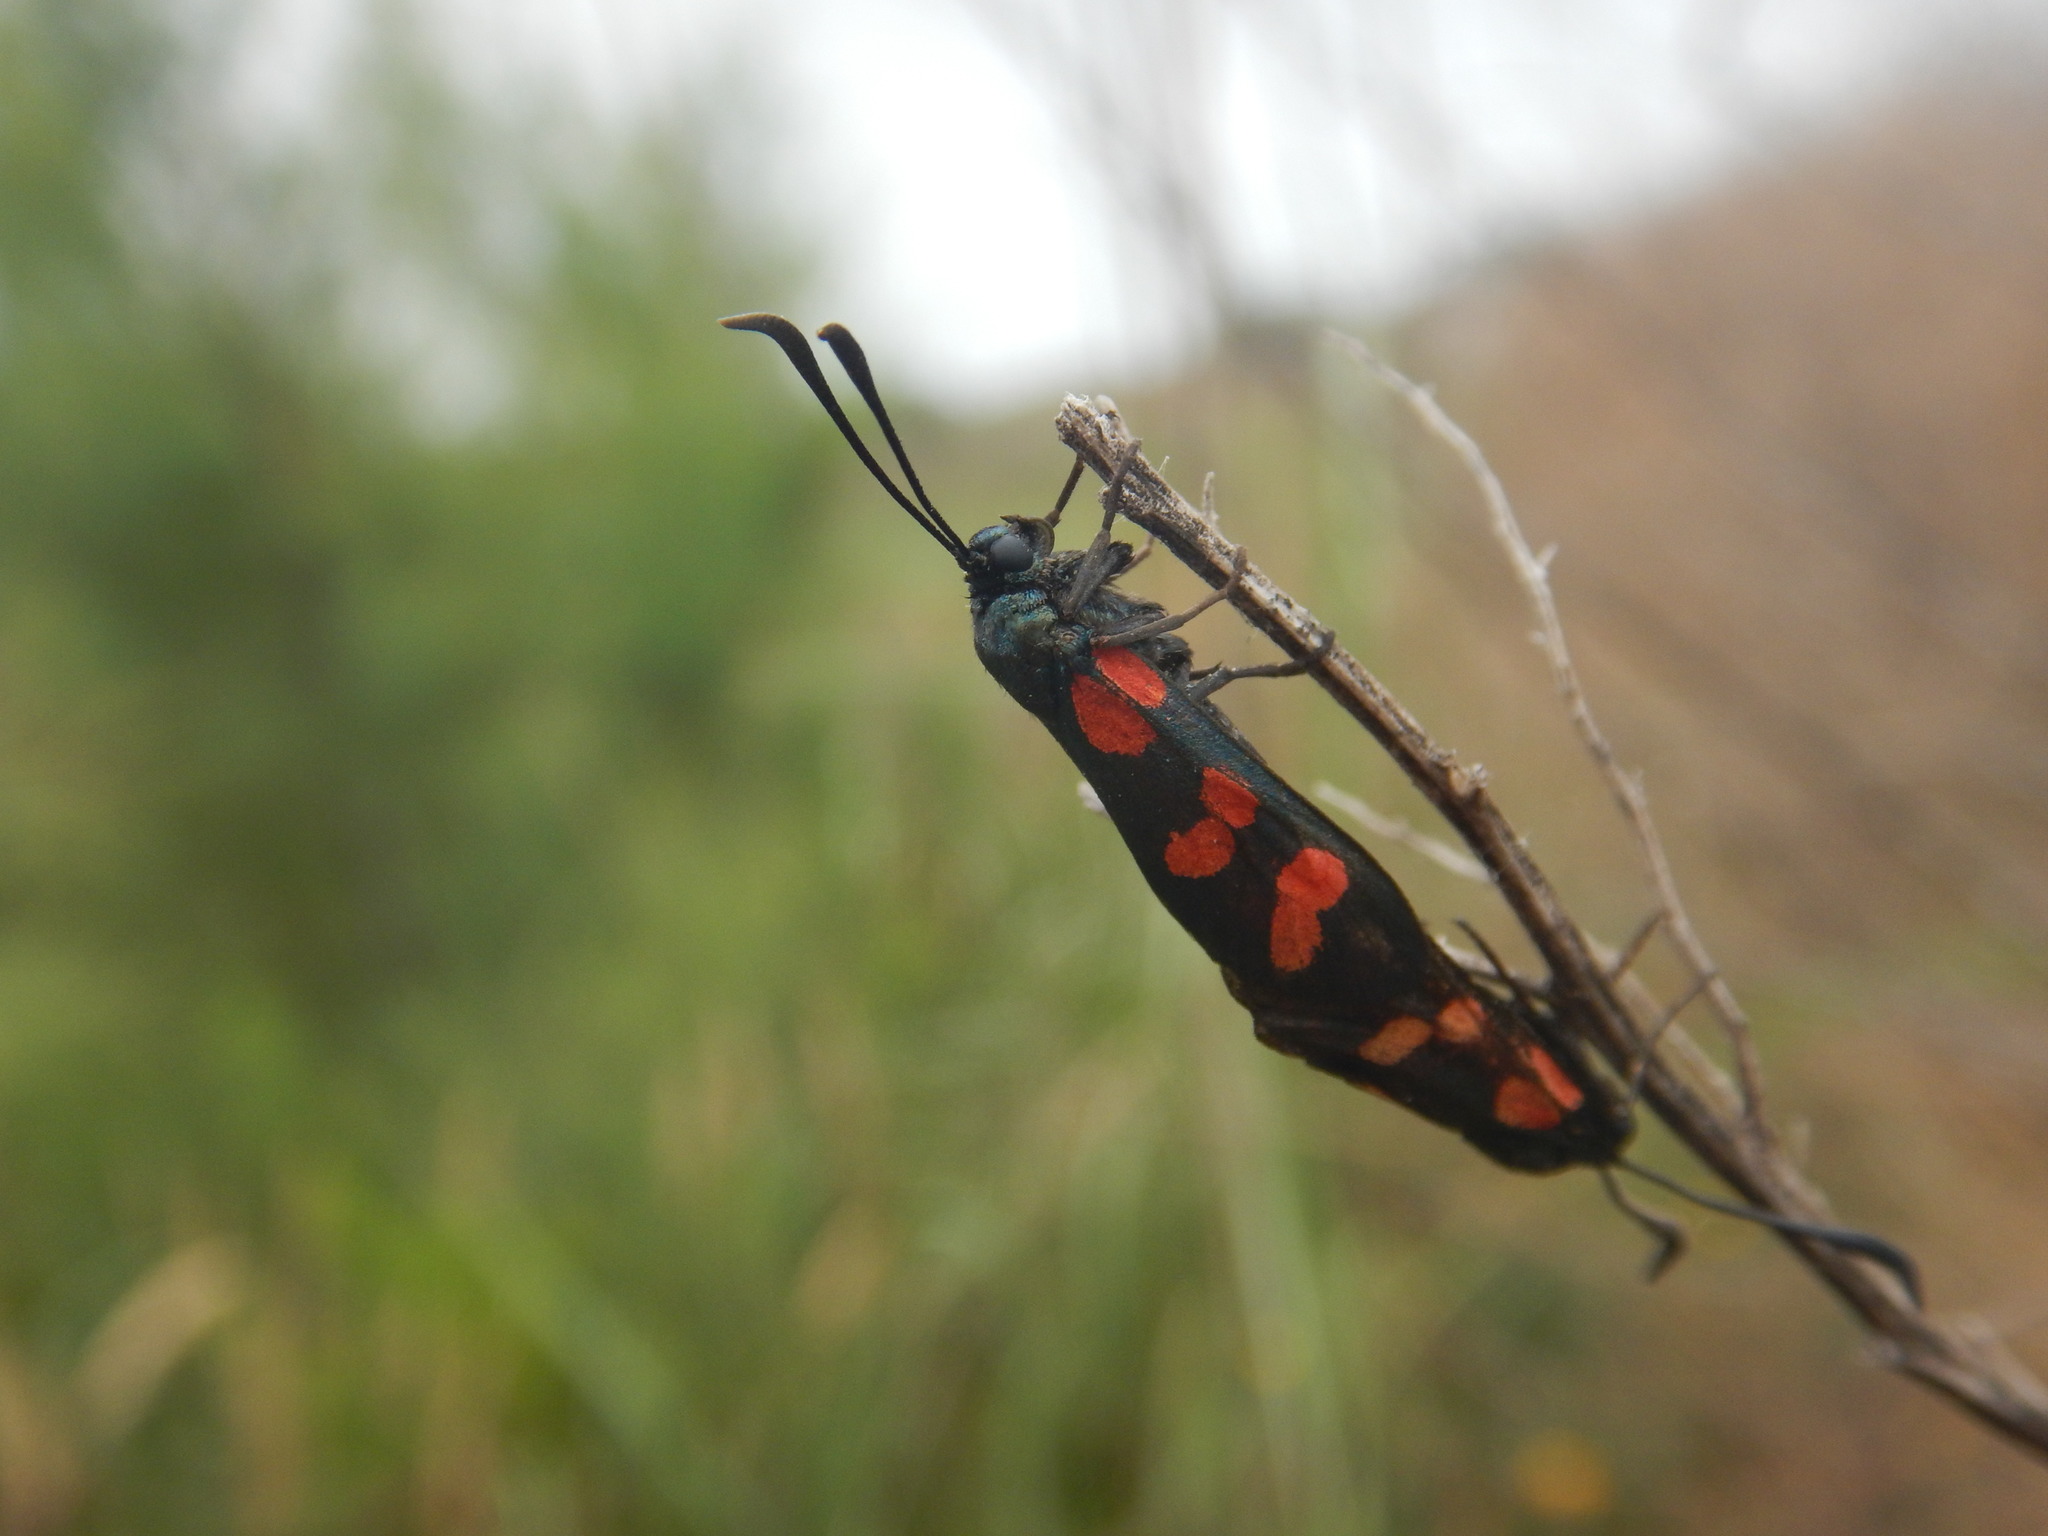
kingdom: Animalia
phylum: Arthropoda
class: Insecta
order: Lepidoptera
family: Zygaenidae
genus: Zygaena
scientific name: Zygaena filipendulae
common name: Six-spot burnet
